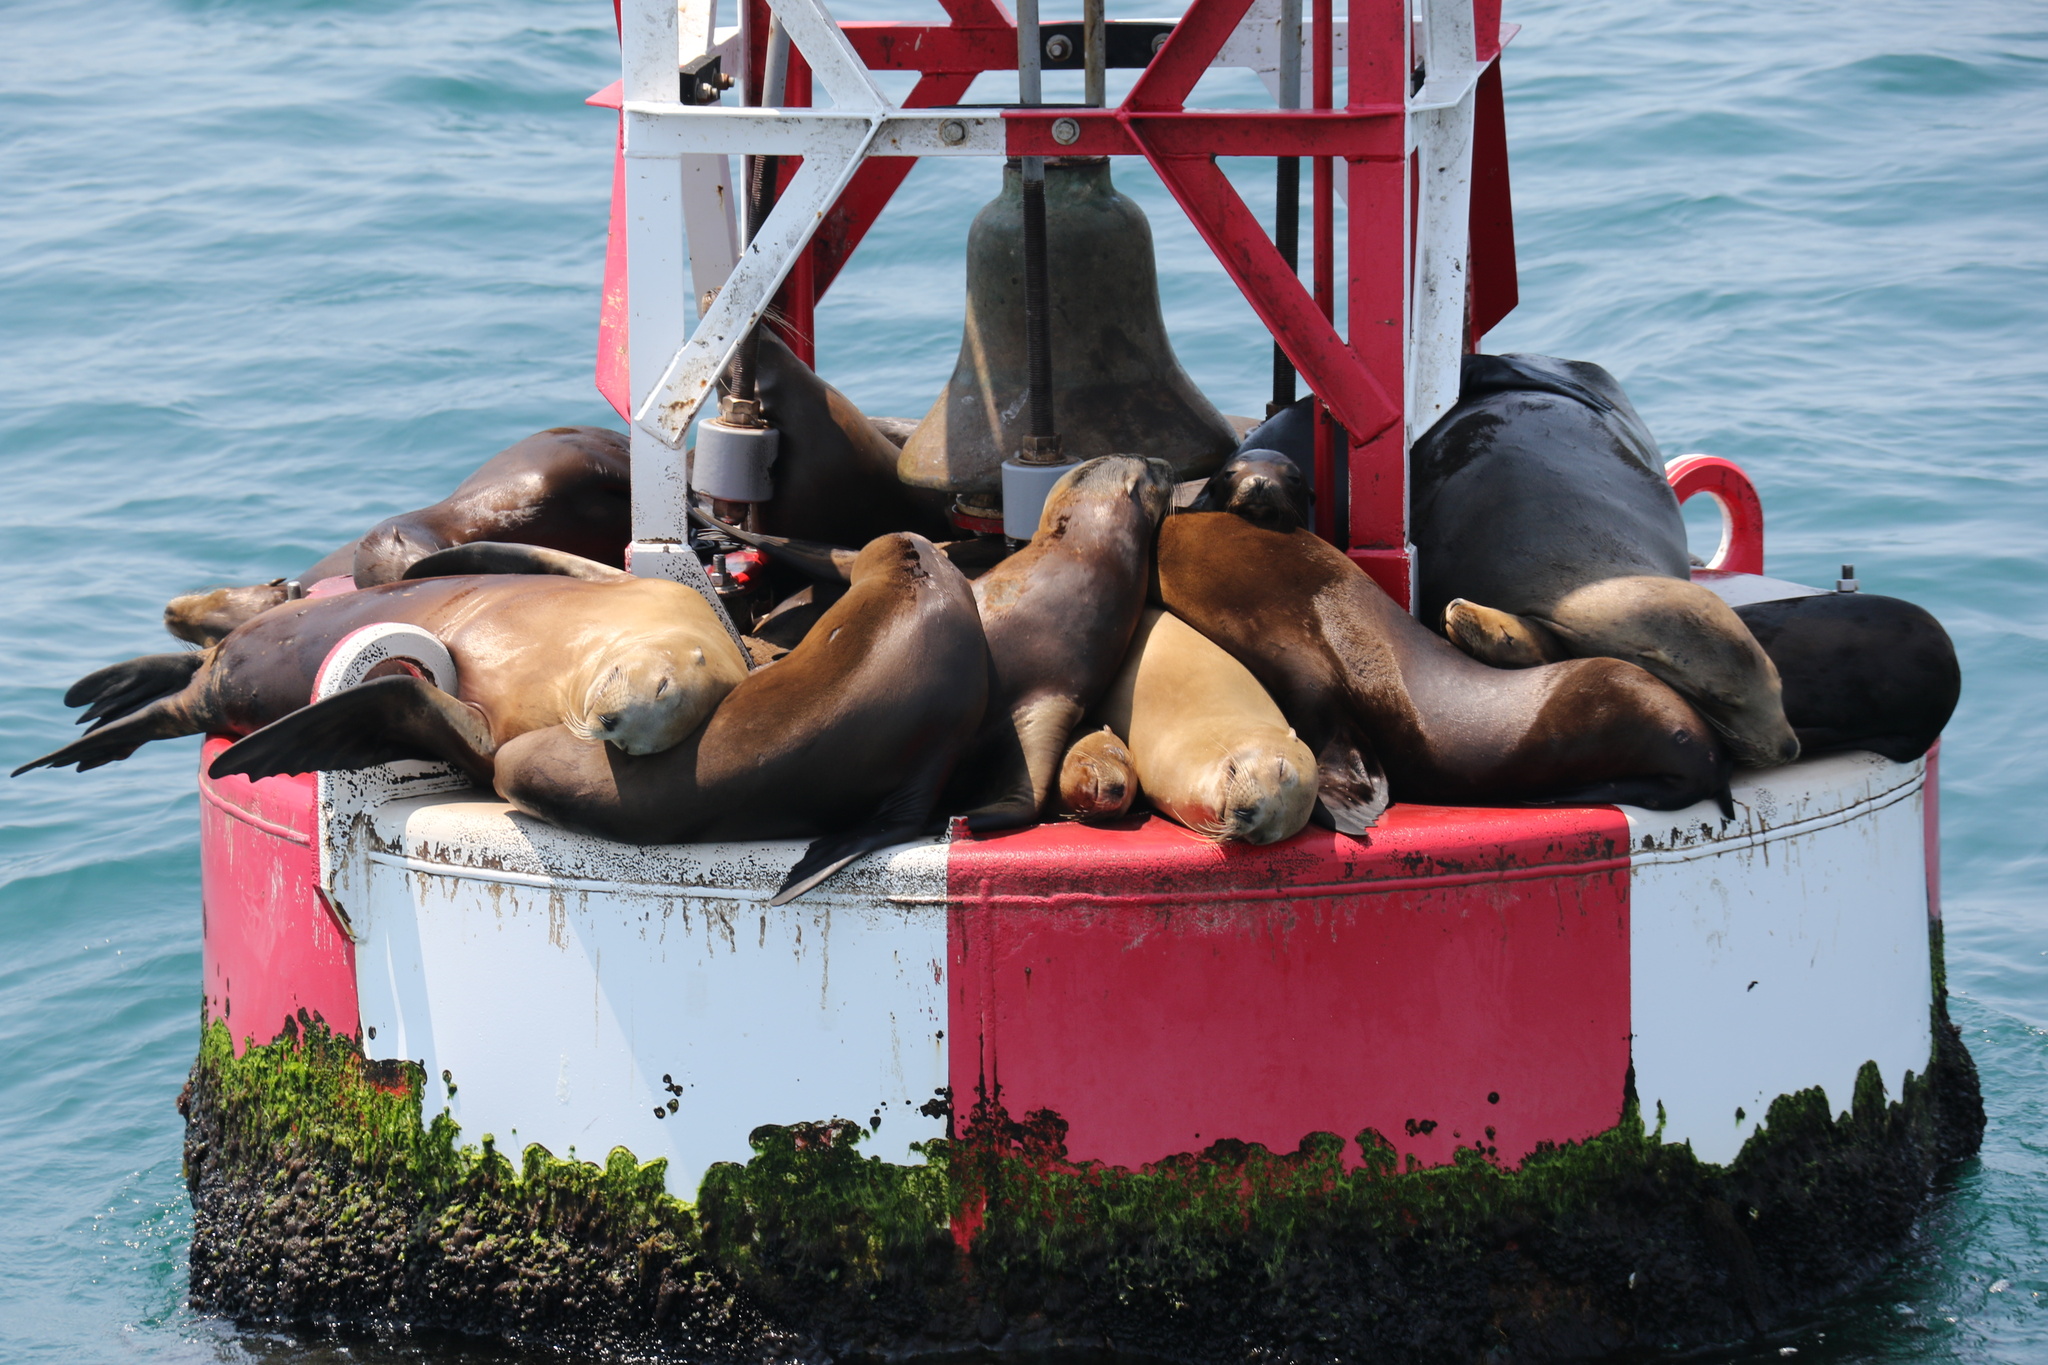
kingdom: Animalia
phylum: Chordata
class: Mammalia
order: Carnivora
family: Otariidae
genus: Zalophus
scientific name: Zalophus californianus
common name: California sea lion
